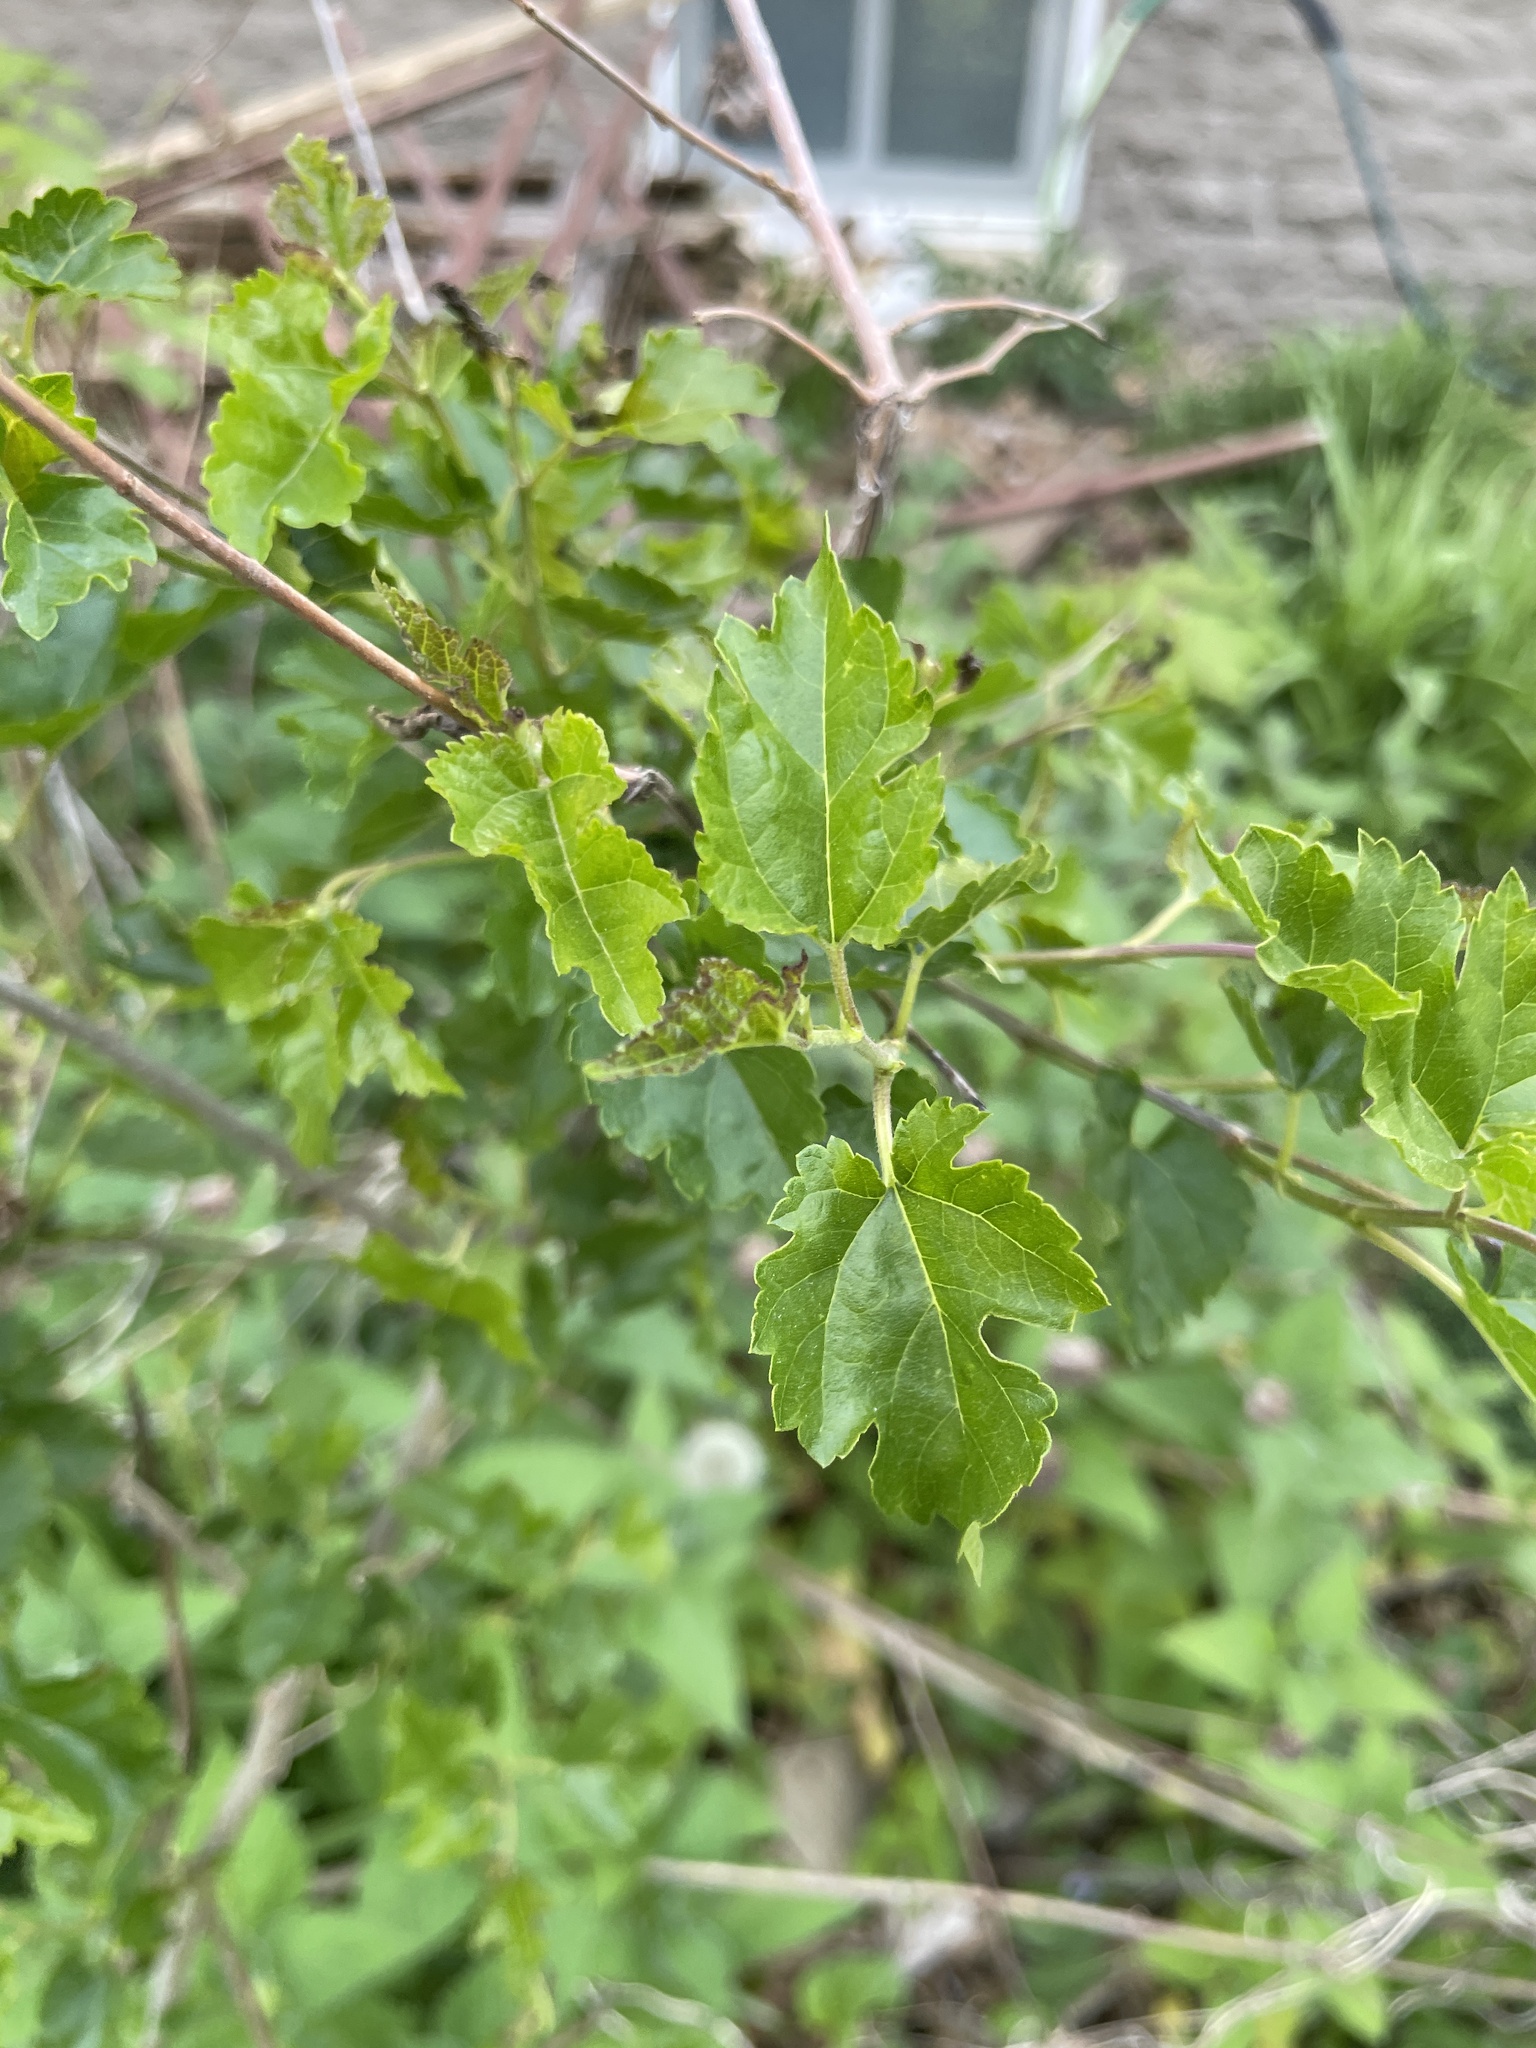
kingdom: Plantae
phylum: Tracheophyta
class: Magnoliopsida
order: Rosales
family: Moraceae
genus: Morus
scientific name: Morus alba
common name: White mulberry
